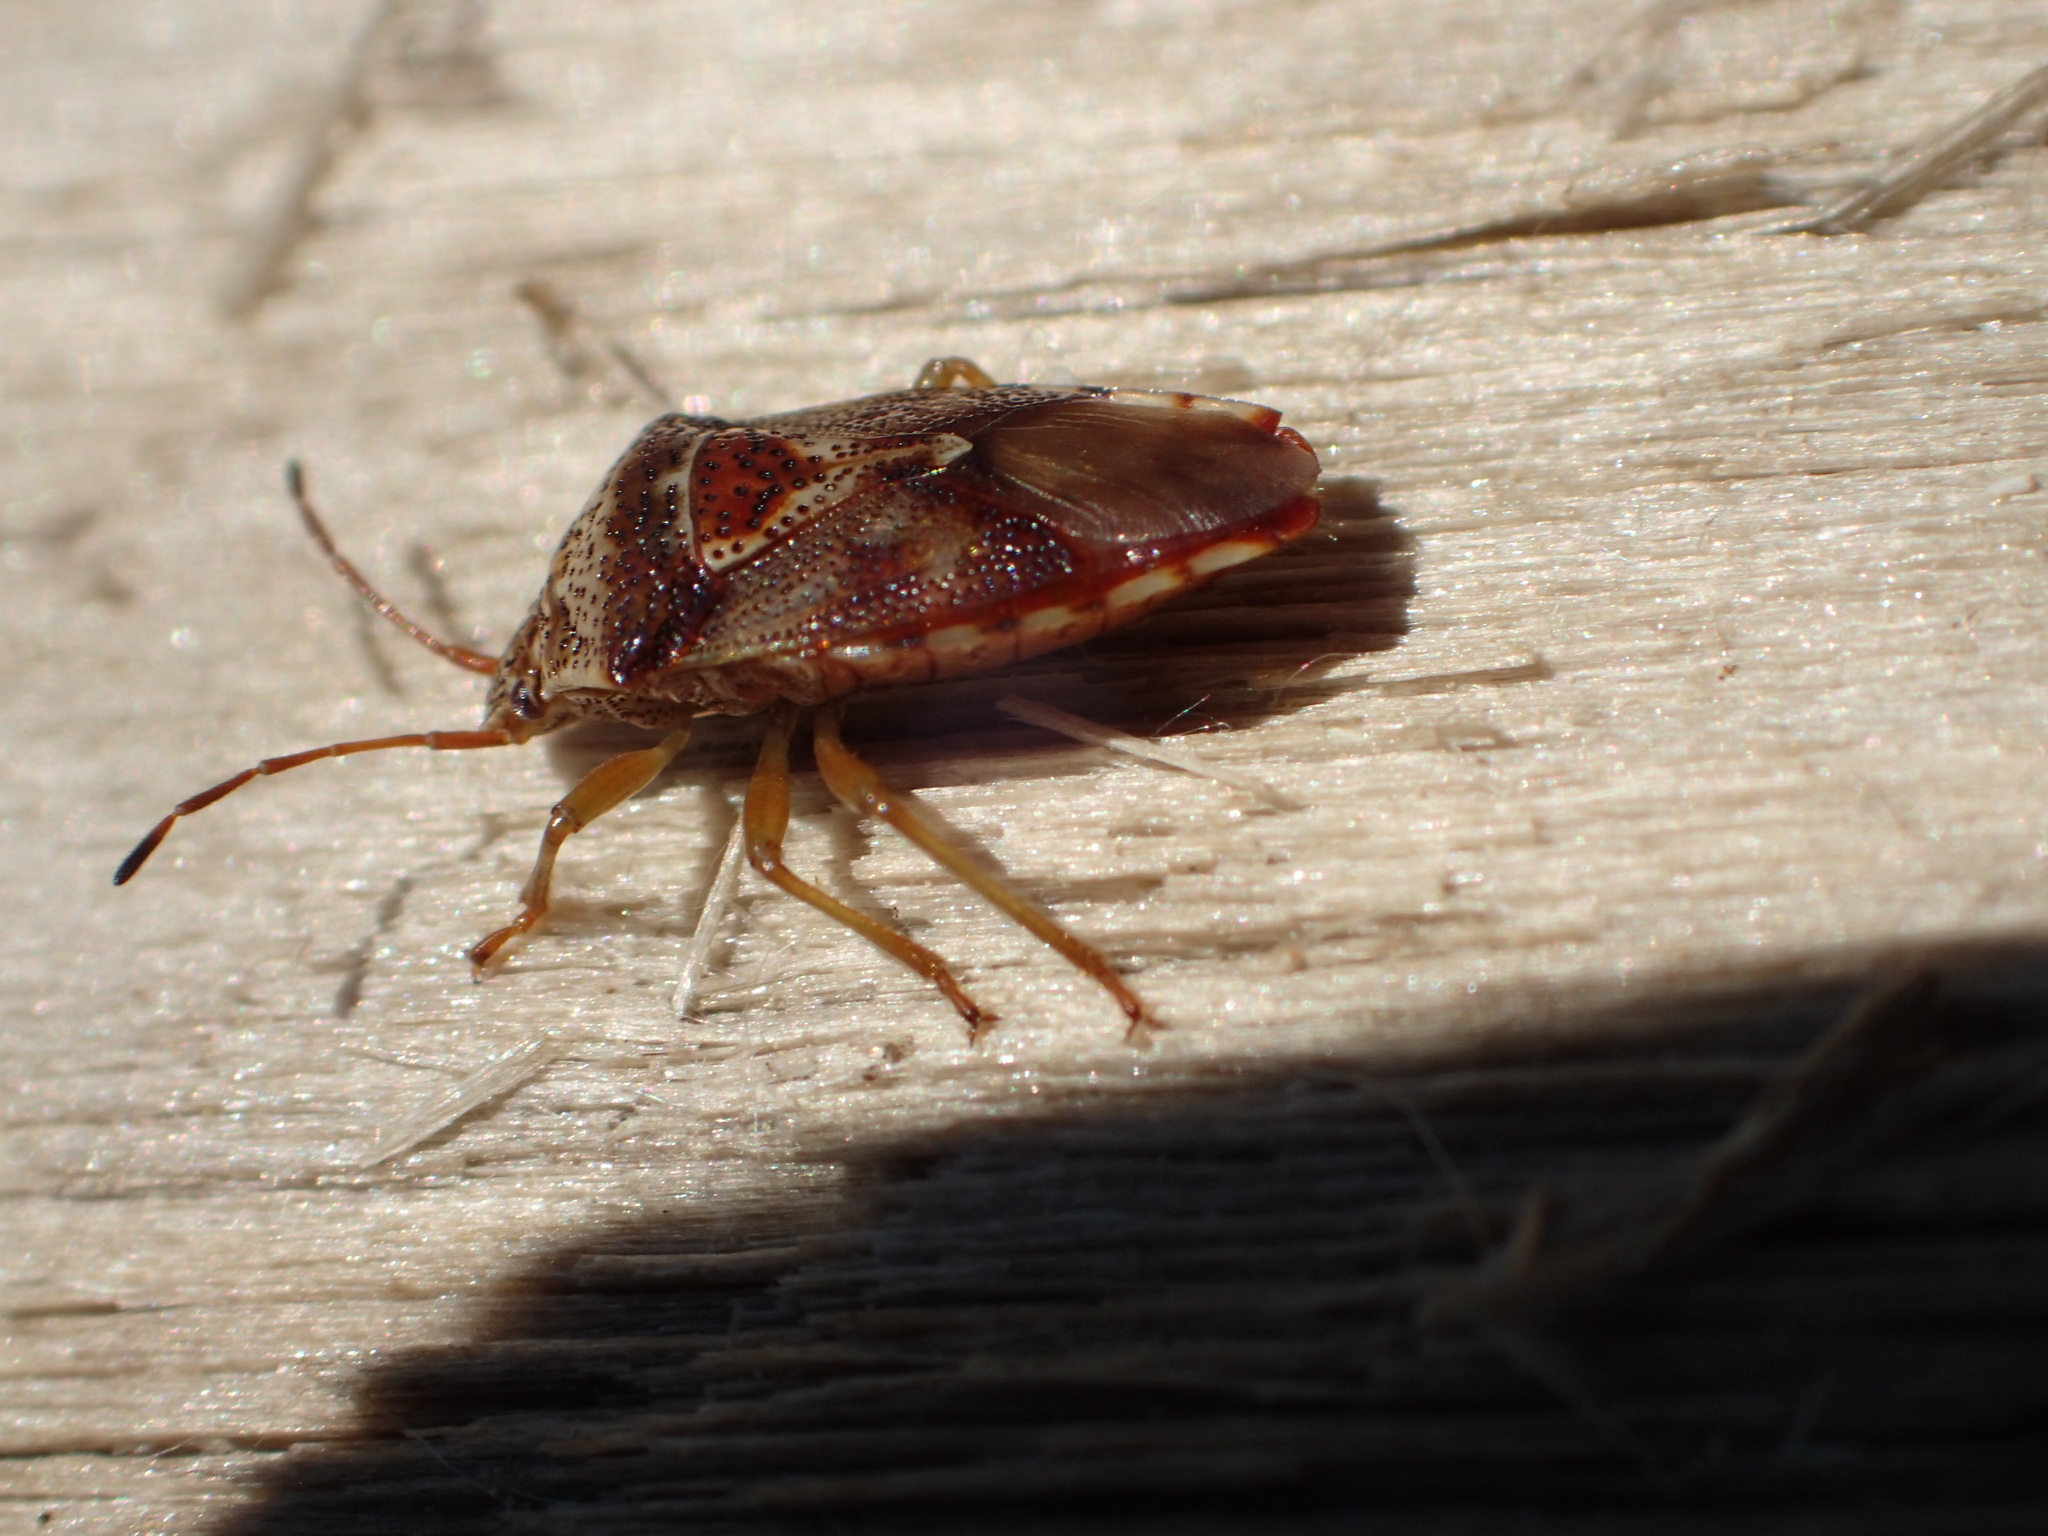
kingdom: Animalia
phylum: Arthropoda
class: Insecta
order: Hemiptera
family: Acanthosomatidae
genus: Elasmucha
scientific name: Elasmucha lateralis
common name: Shield bug
